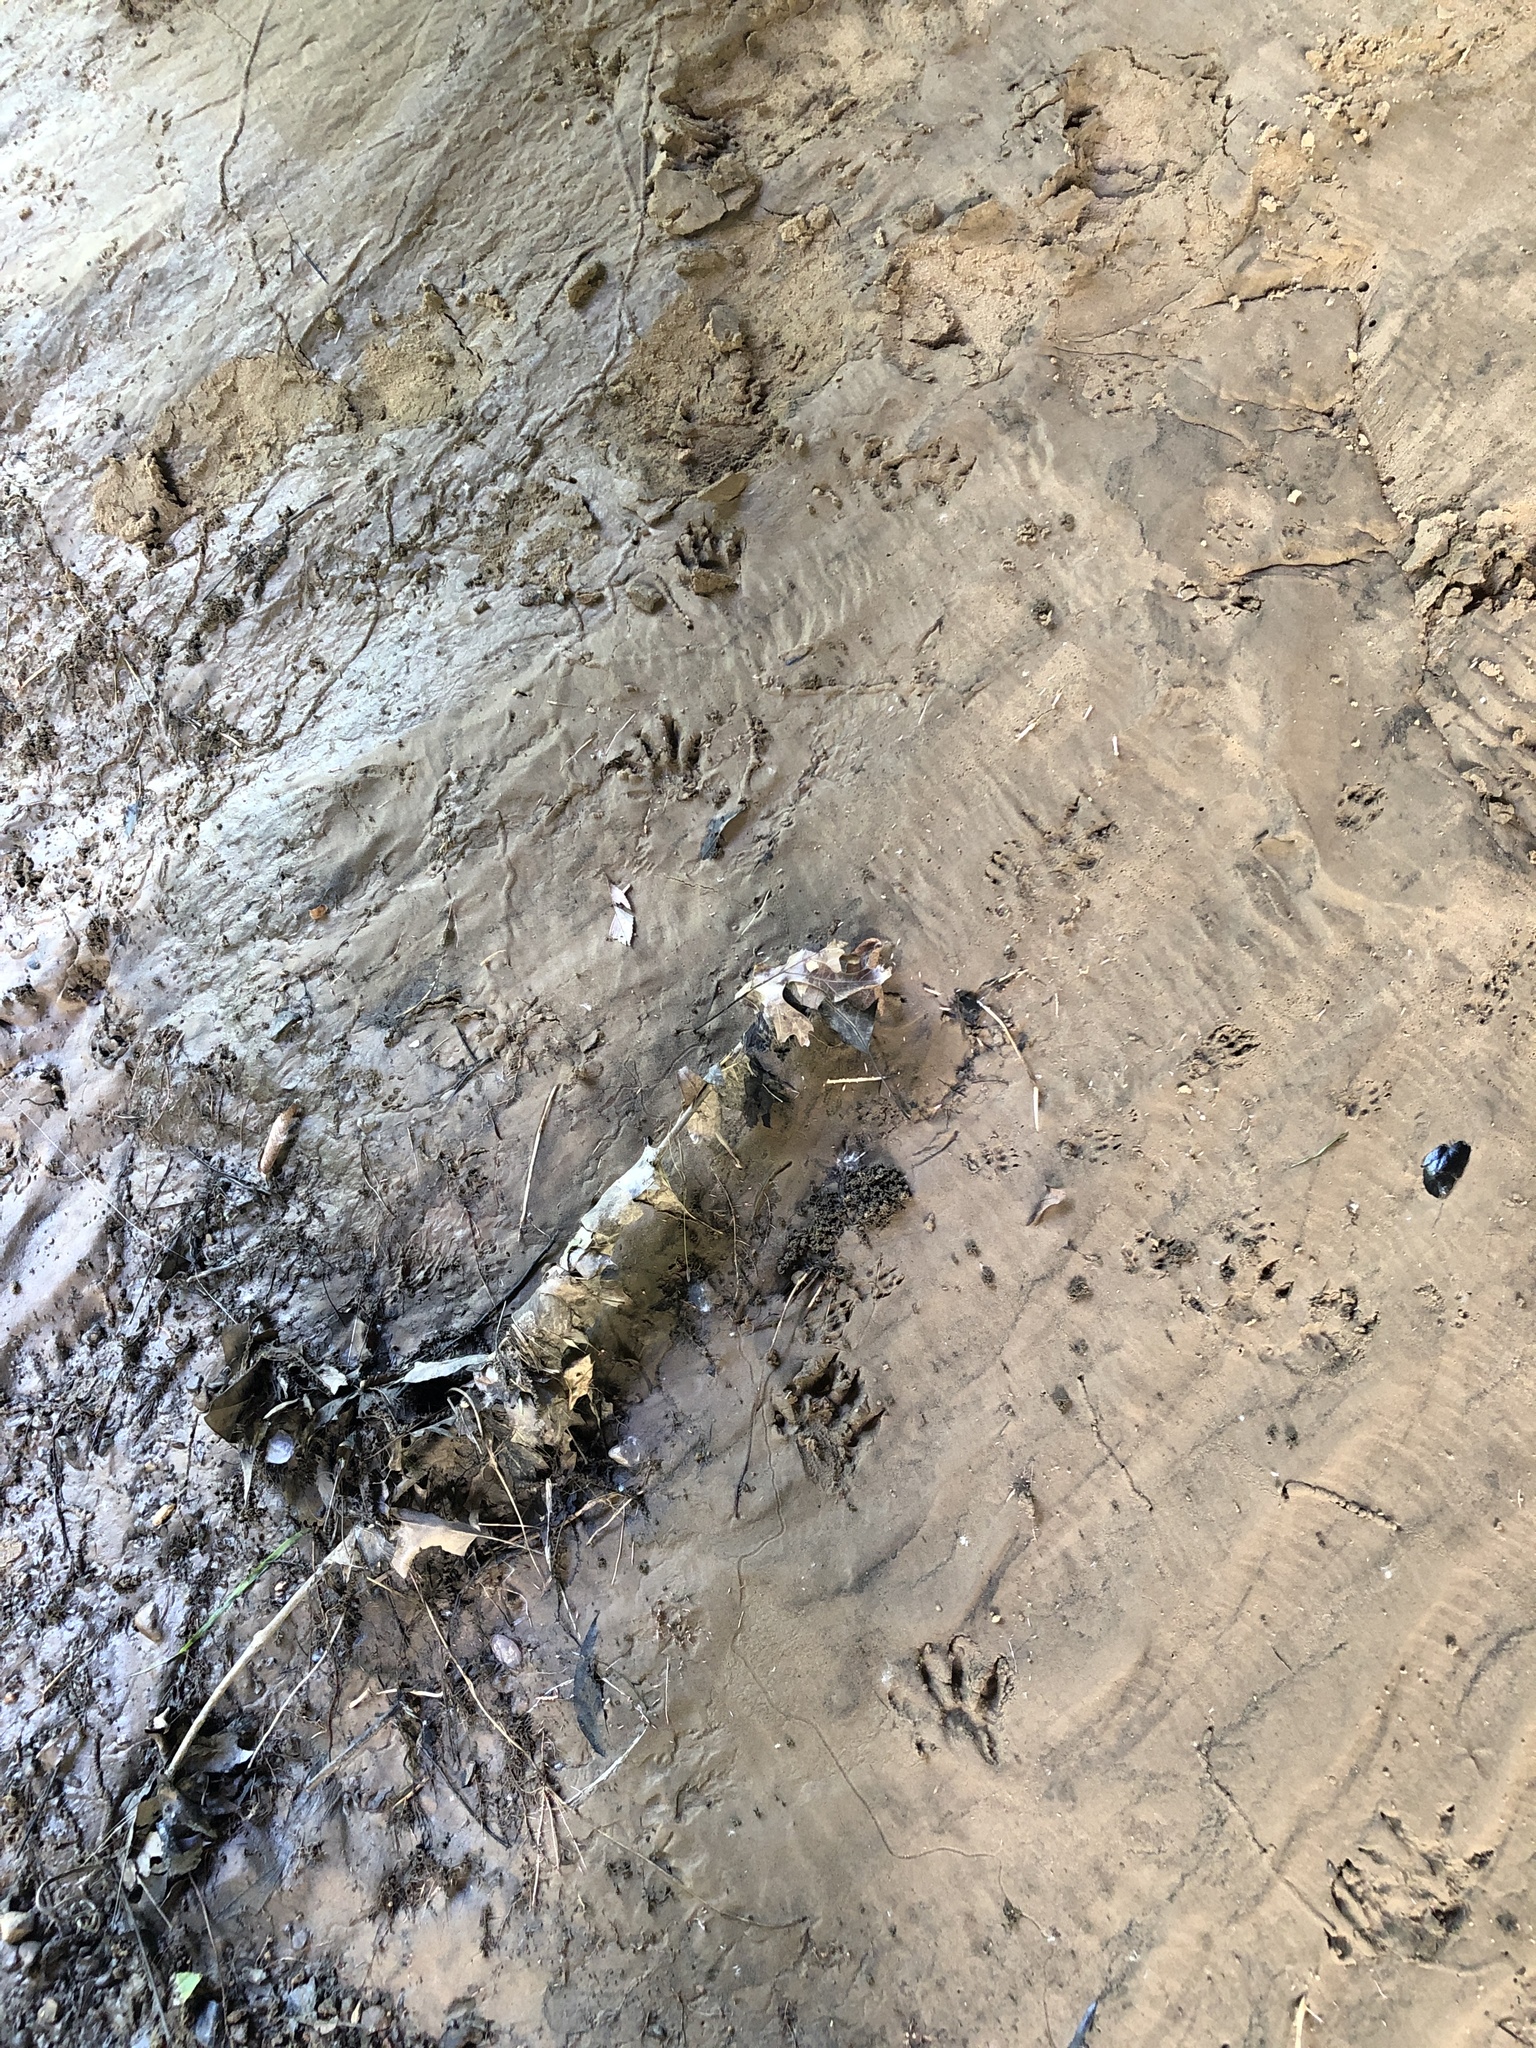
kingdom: Animalia
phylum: Chordata
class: Mammalia
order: Carnivora
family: Procyonidae
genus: Procyon
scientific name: Procyon lotor
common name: Raccoon
